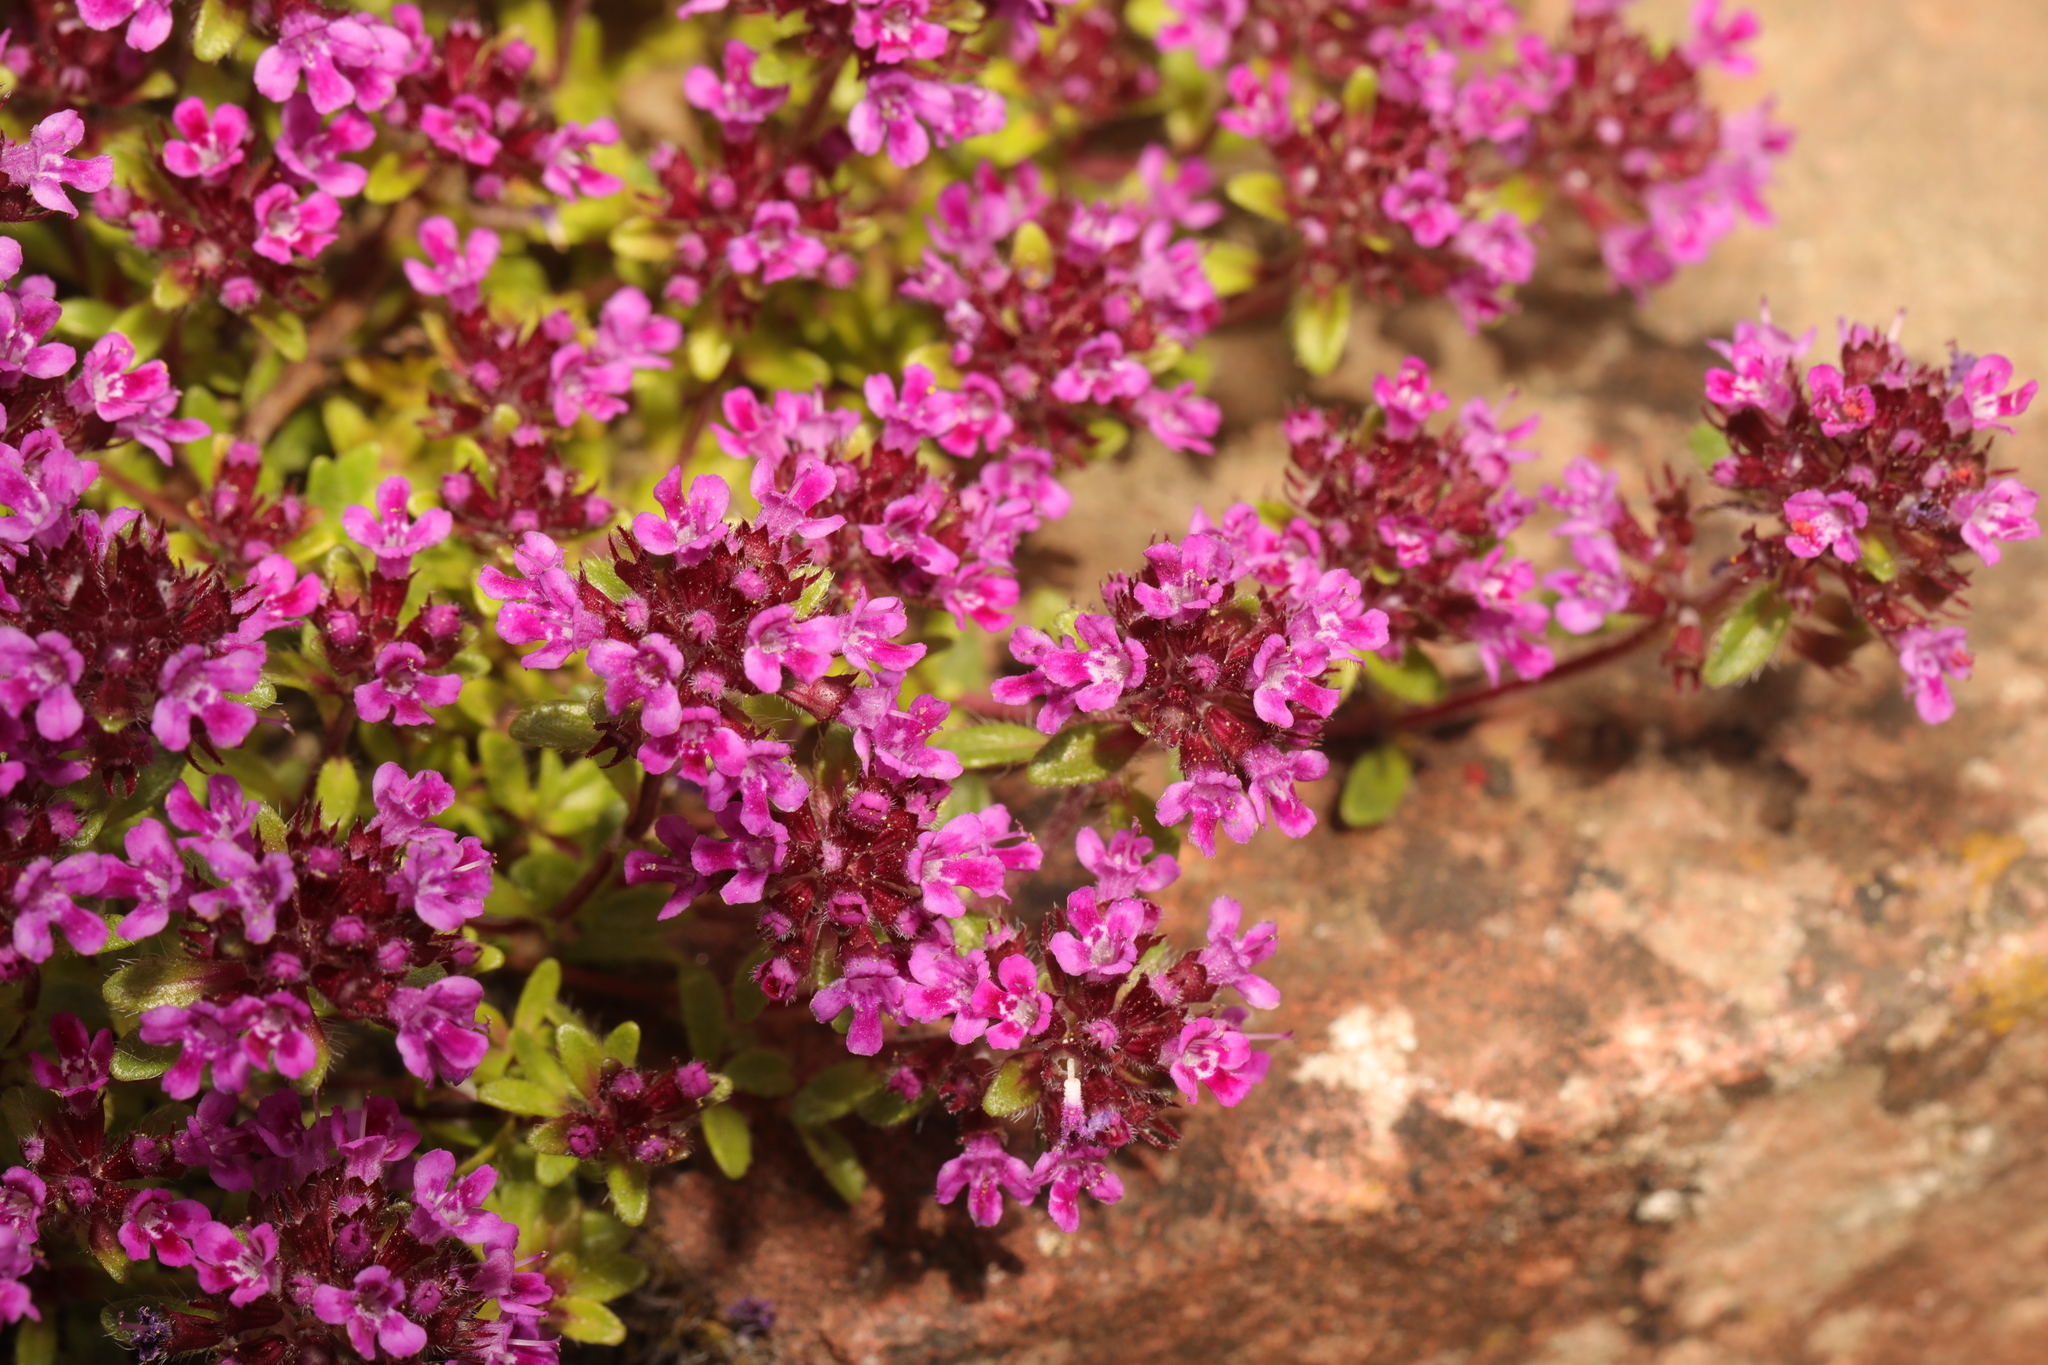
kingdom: Plantae
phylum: Tracheophyta
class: Magnoliopsida
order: Lamiales
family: Lamiaceae
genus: Thymus
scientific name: Thymus praecox
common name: Wild thyme
